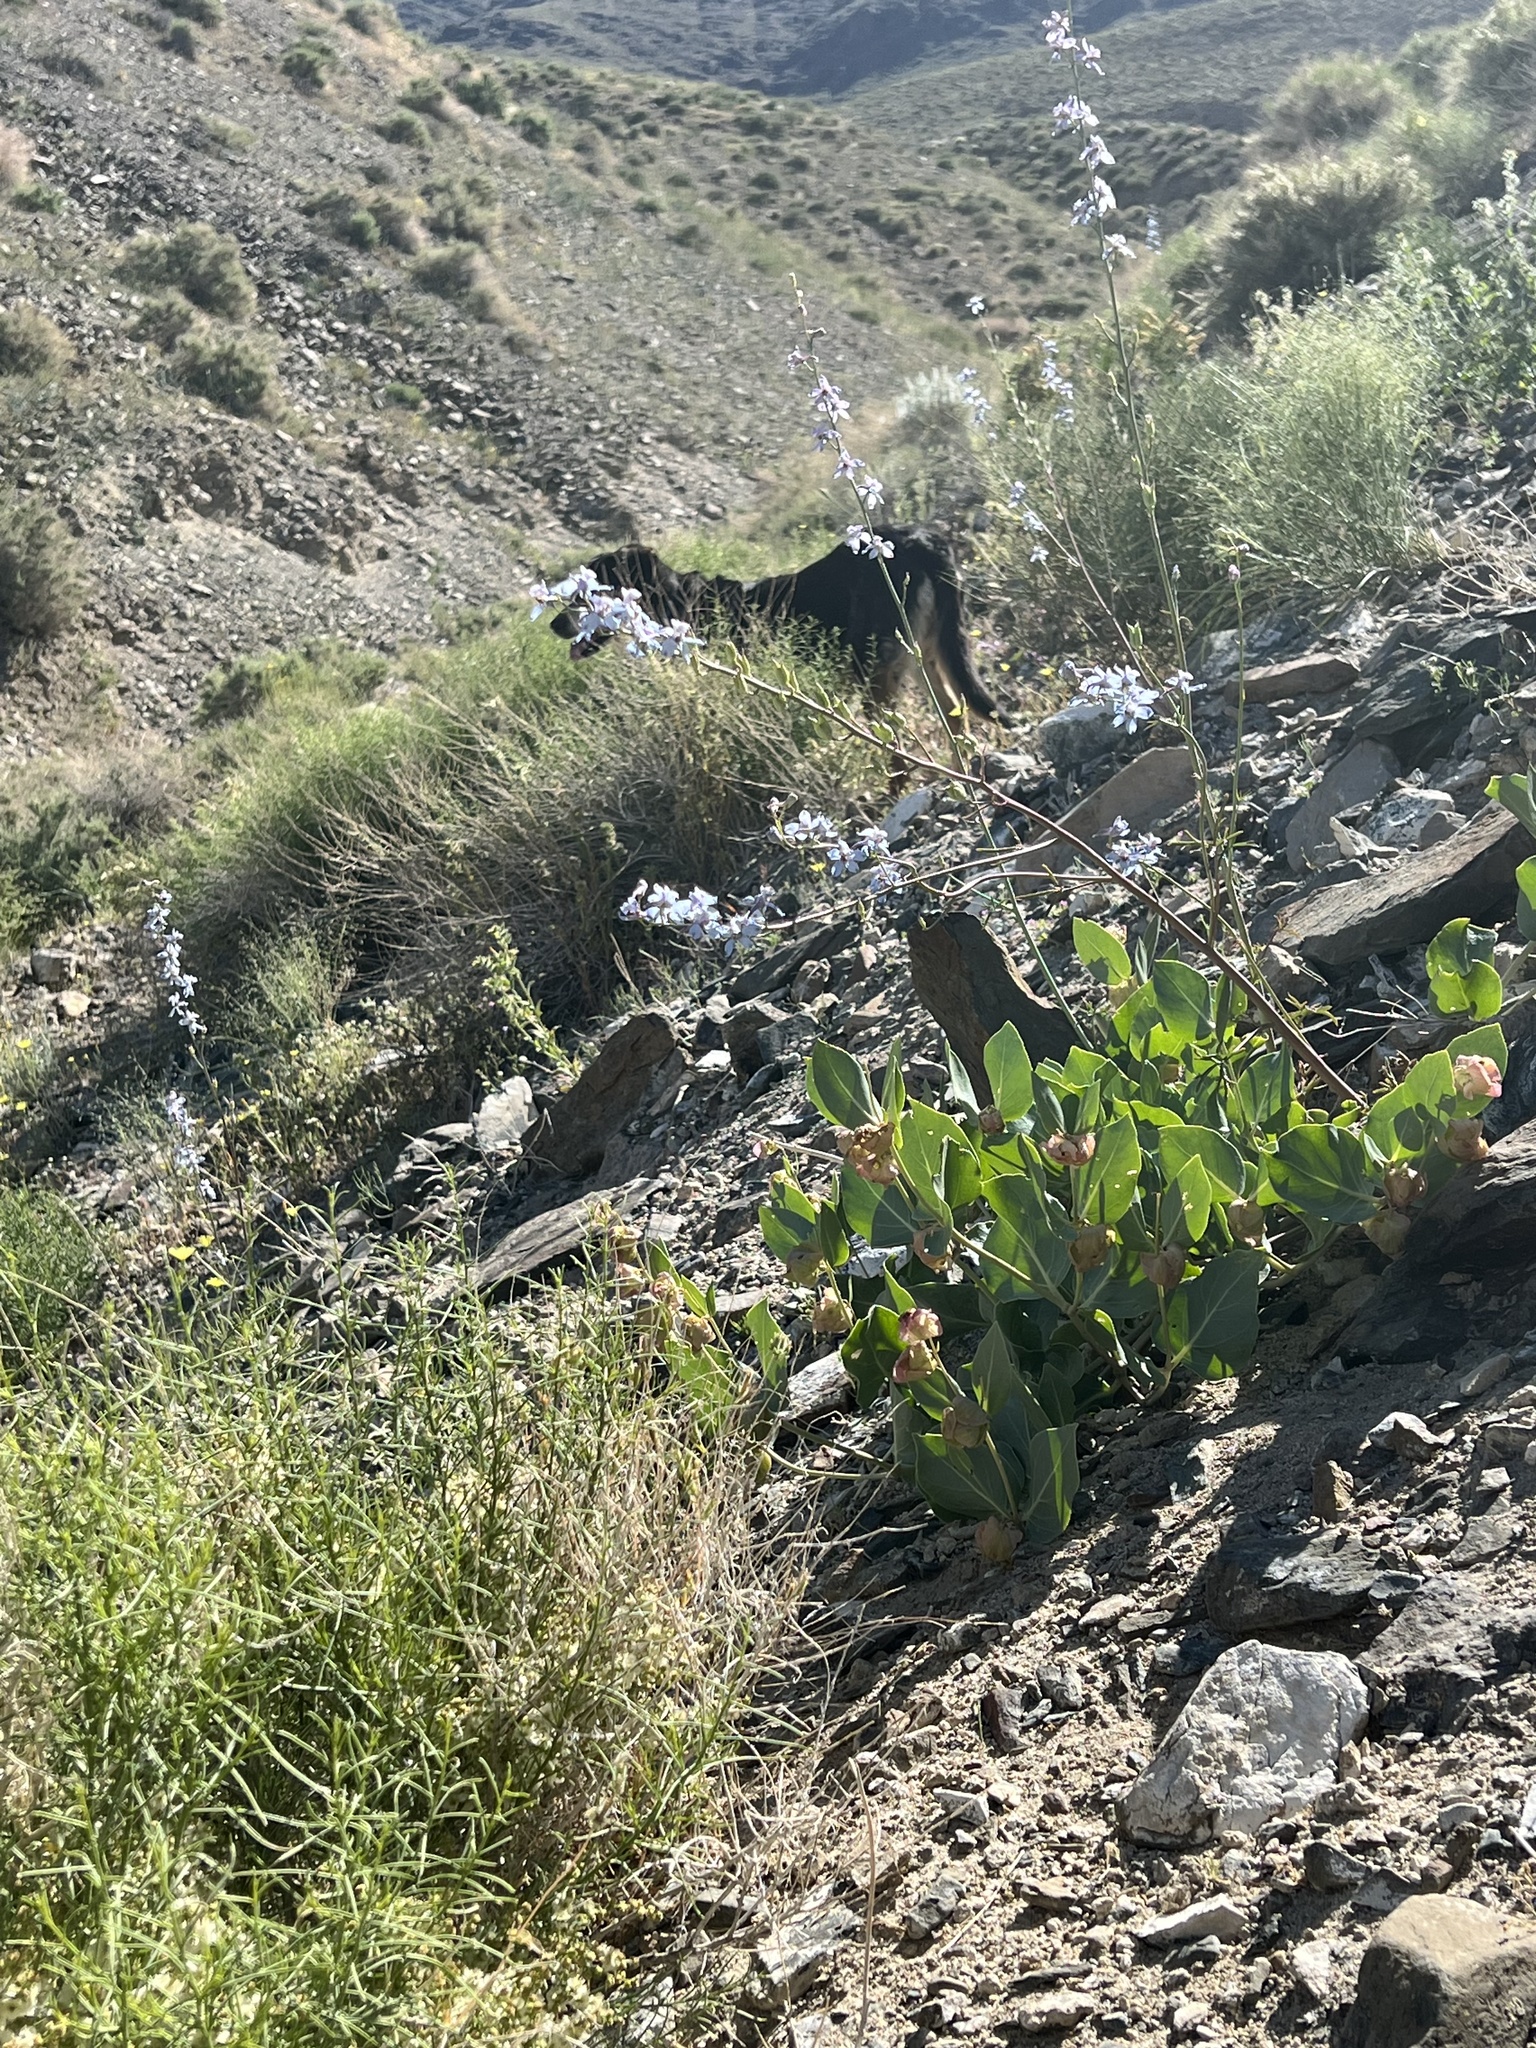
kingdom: Plantae
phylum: Tracheophyta
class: Magnoliopsida
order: Ranunculales
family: Ranunculaceae
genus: Delphinium
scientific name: Delphinium parishii
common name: Apache larkspur
